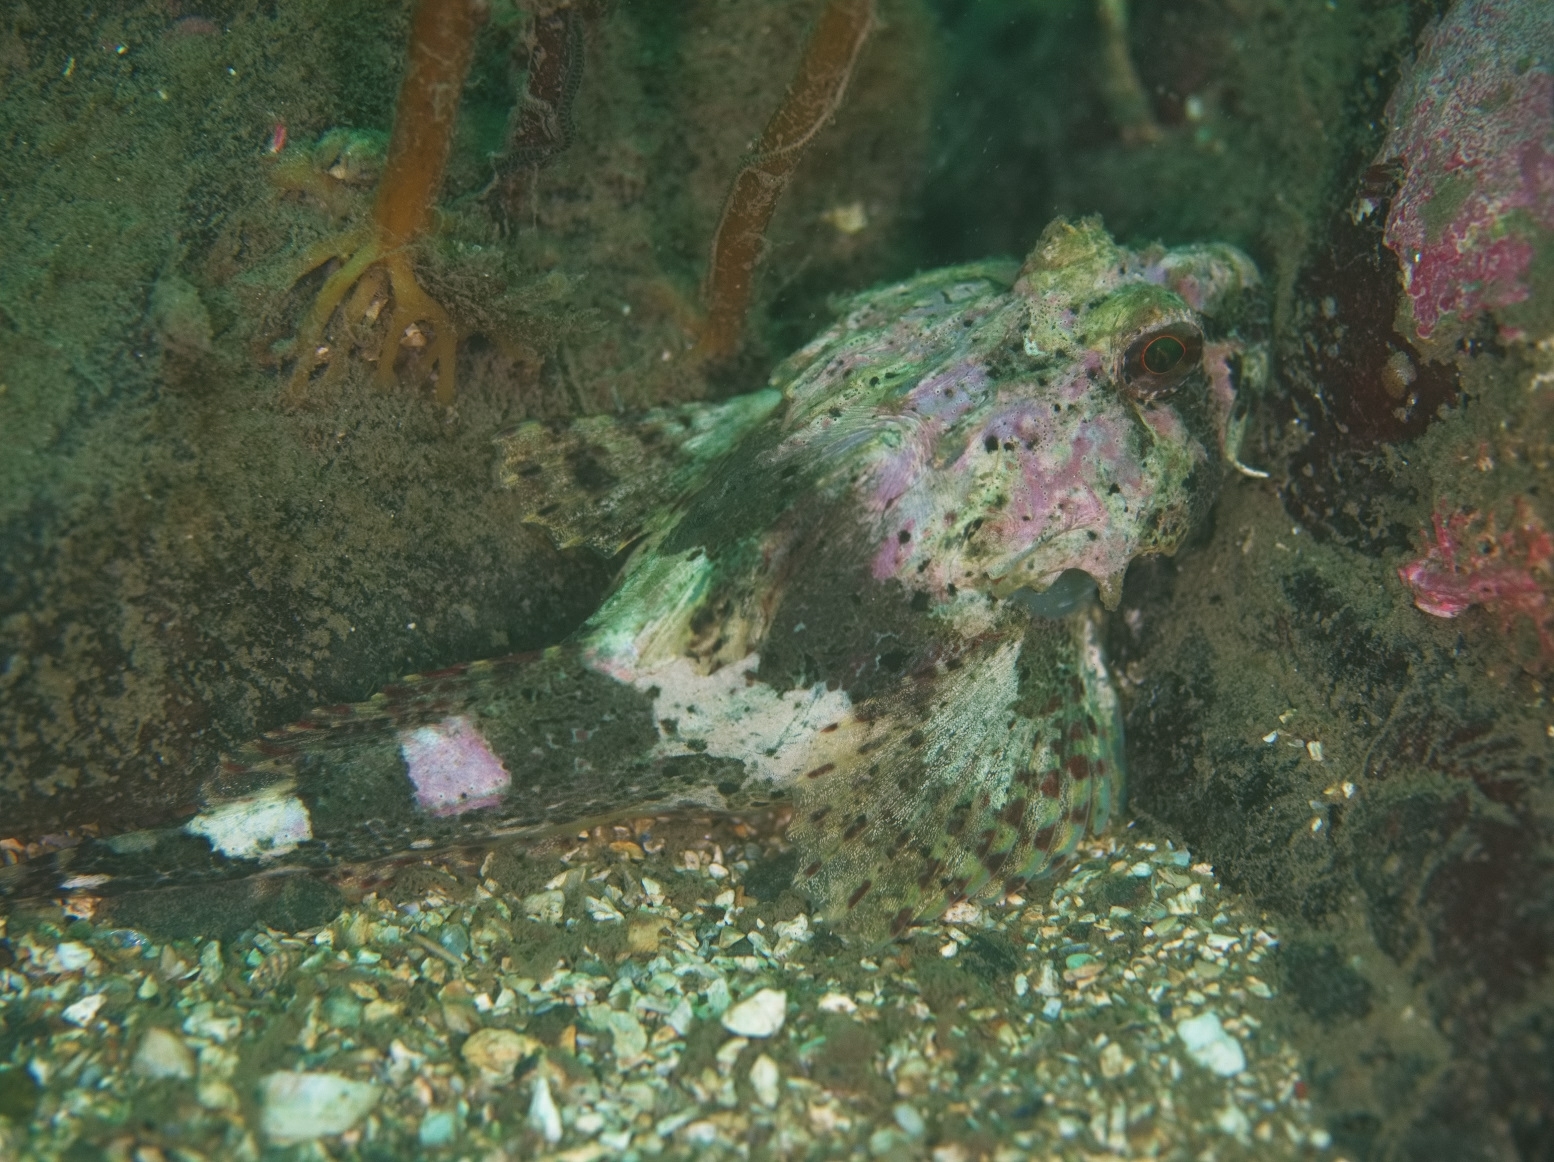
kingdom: Animalia
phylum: Chordata
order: Scorpaeniformes
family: Cottidae
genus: Taurulus
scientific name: Taurulus bubalis
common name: Sea scorpion
